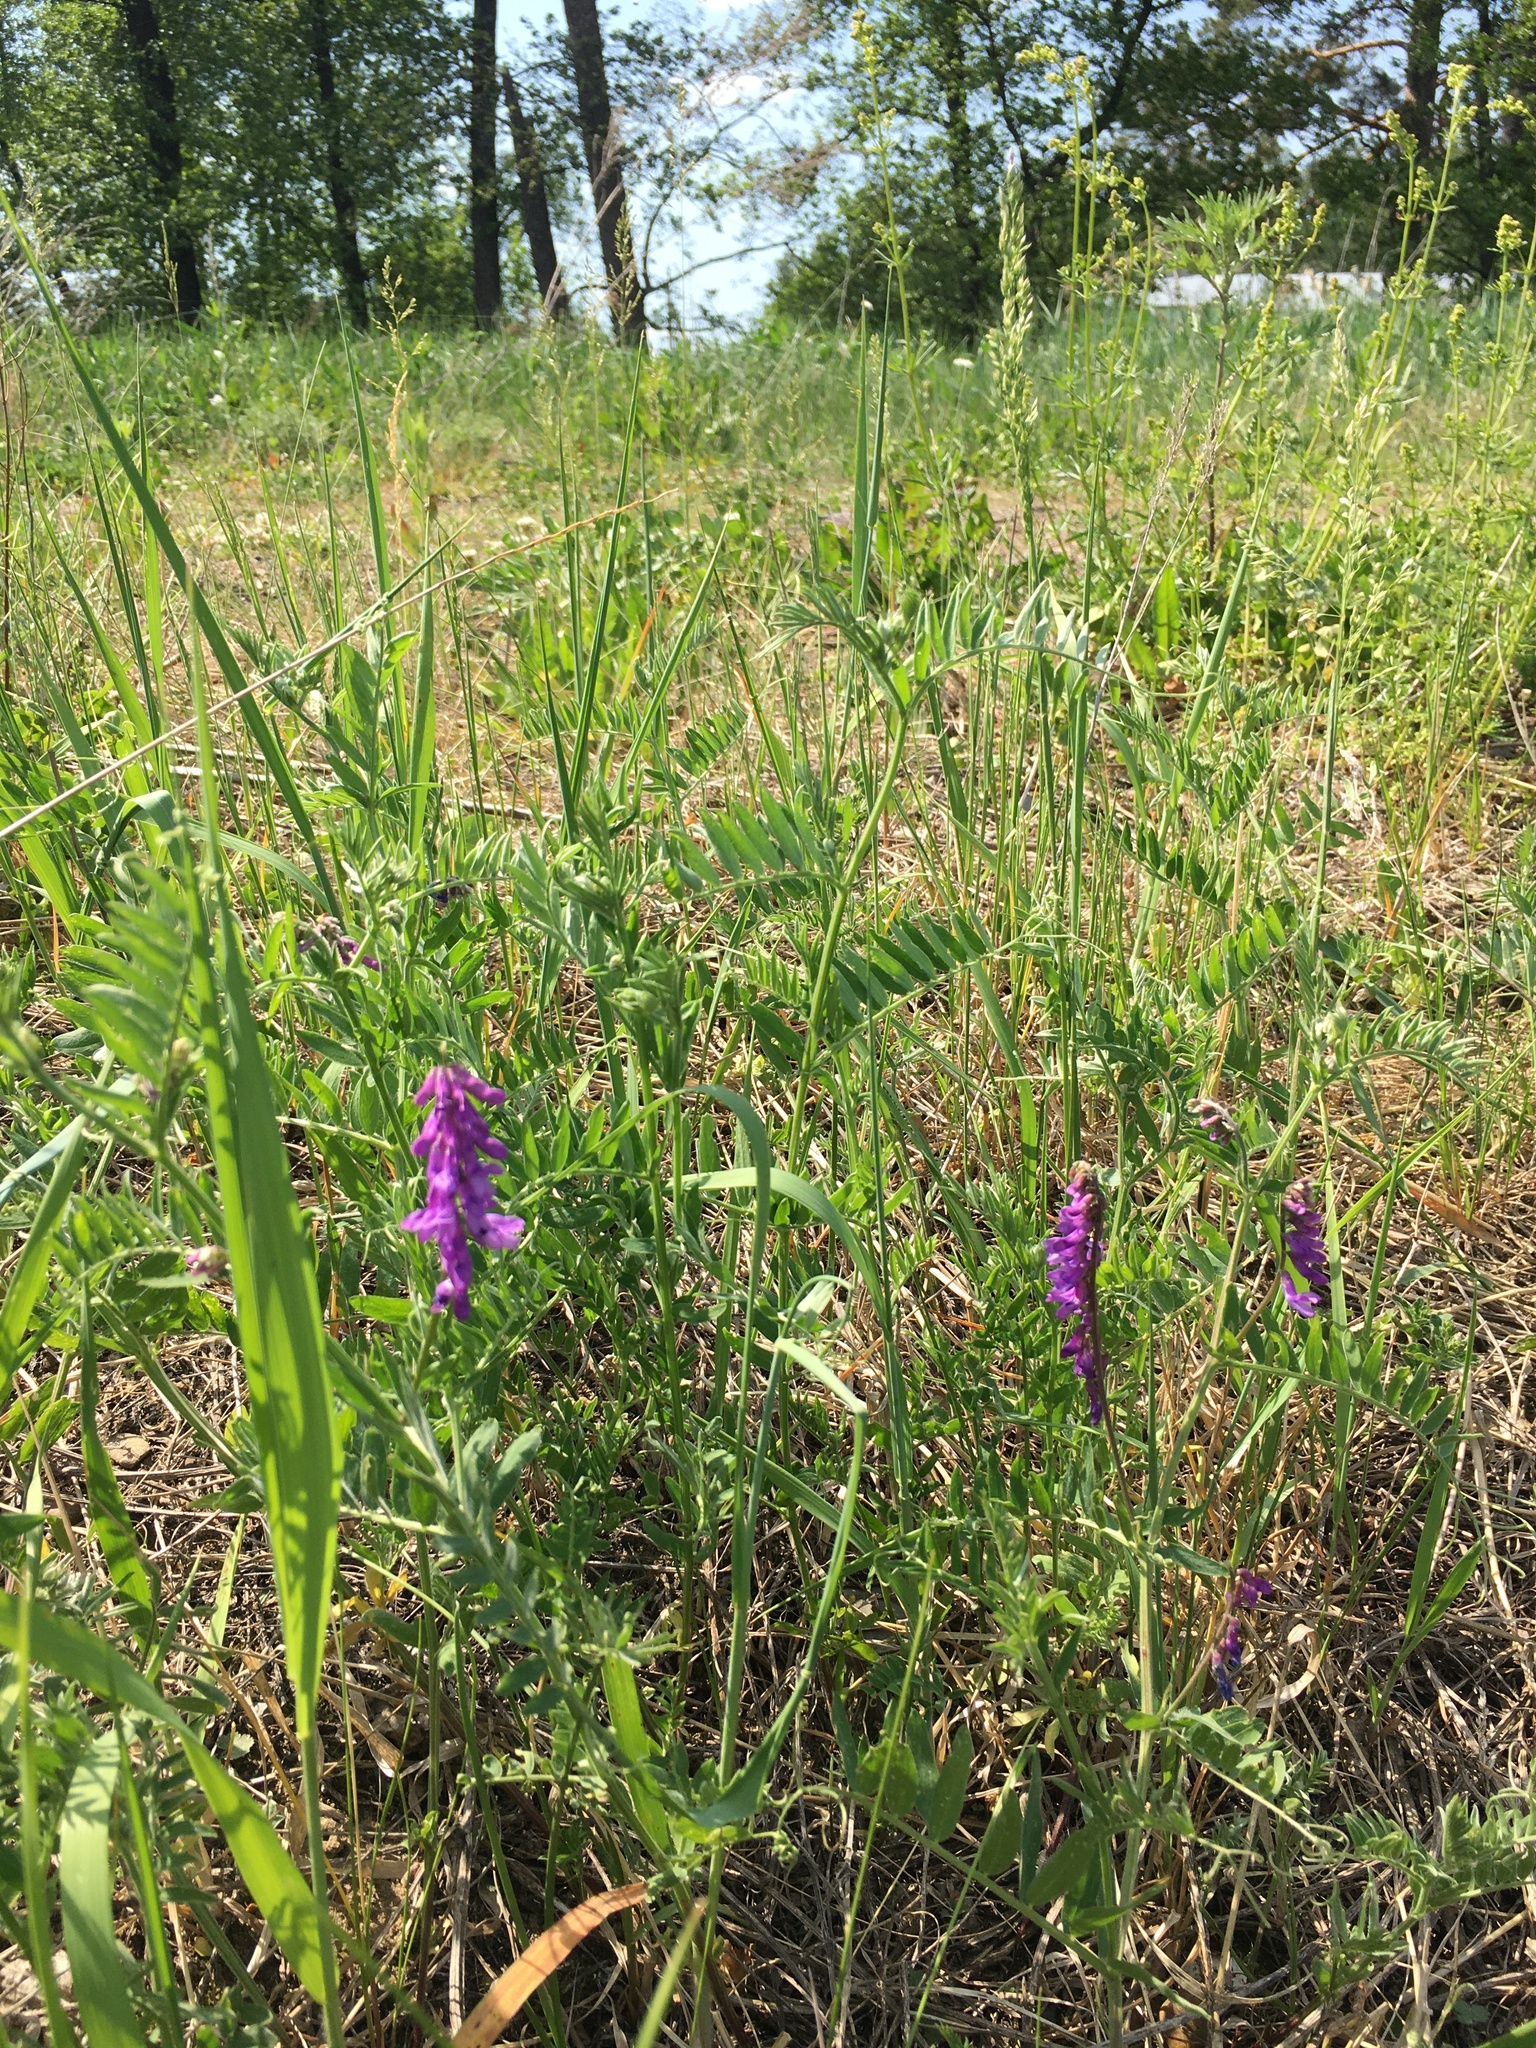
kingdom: Plantae
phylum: Tracheophyta
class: Magnoliopsida
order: Fabales
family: Fabaceae
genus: Vicia
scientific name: Vicia cracca
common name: Bird vetch
